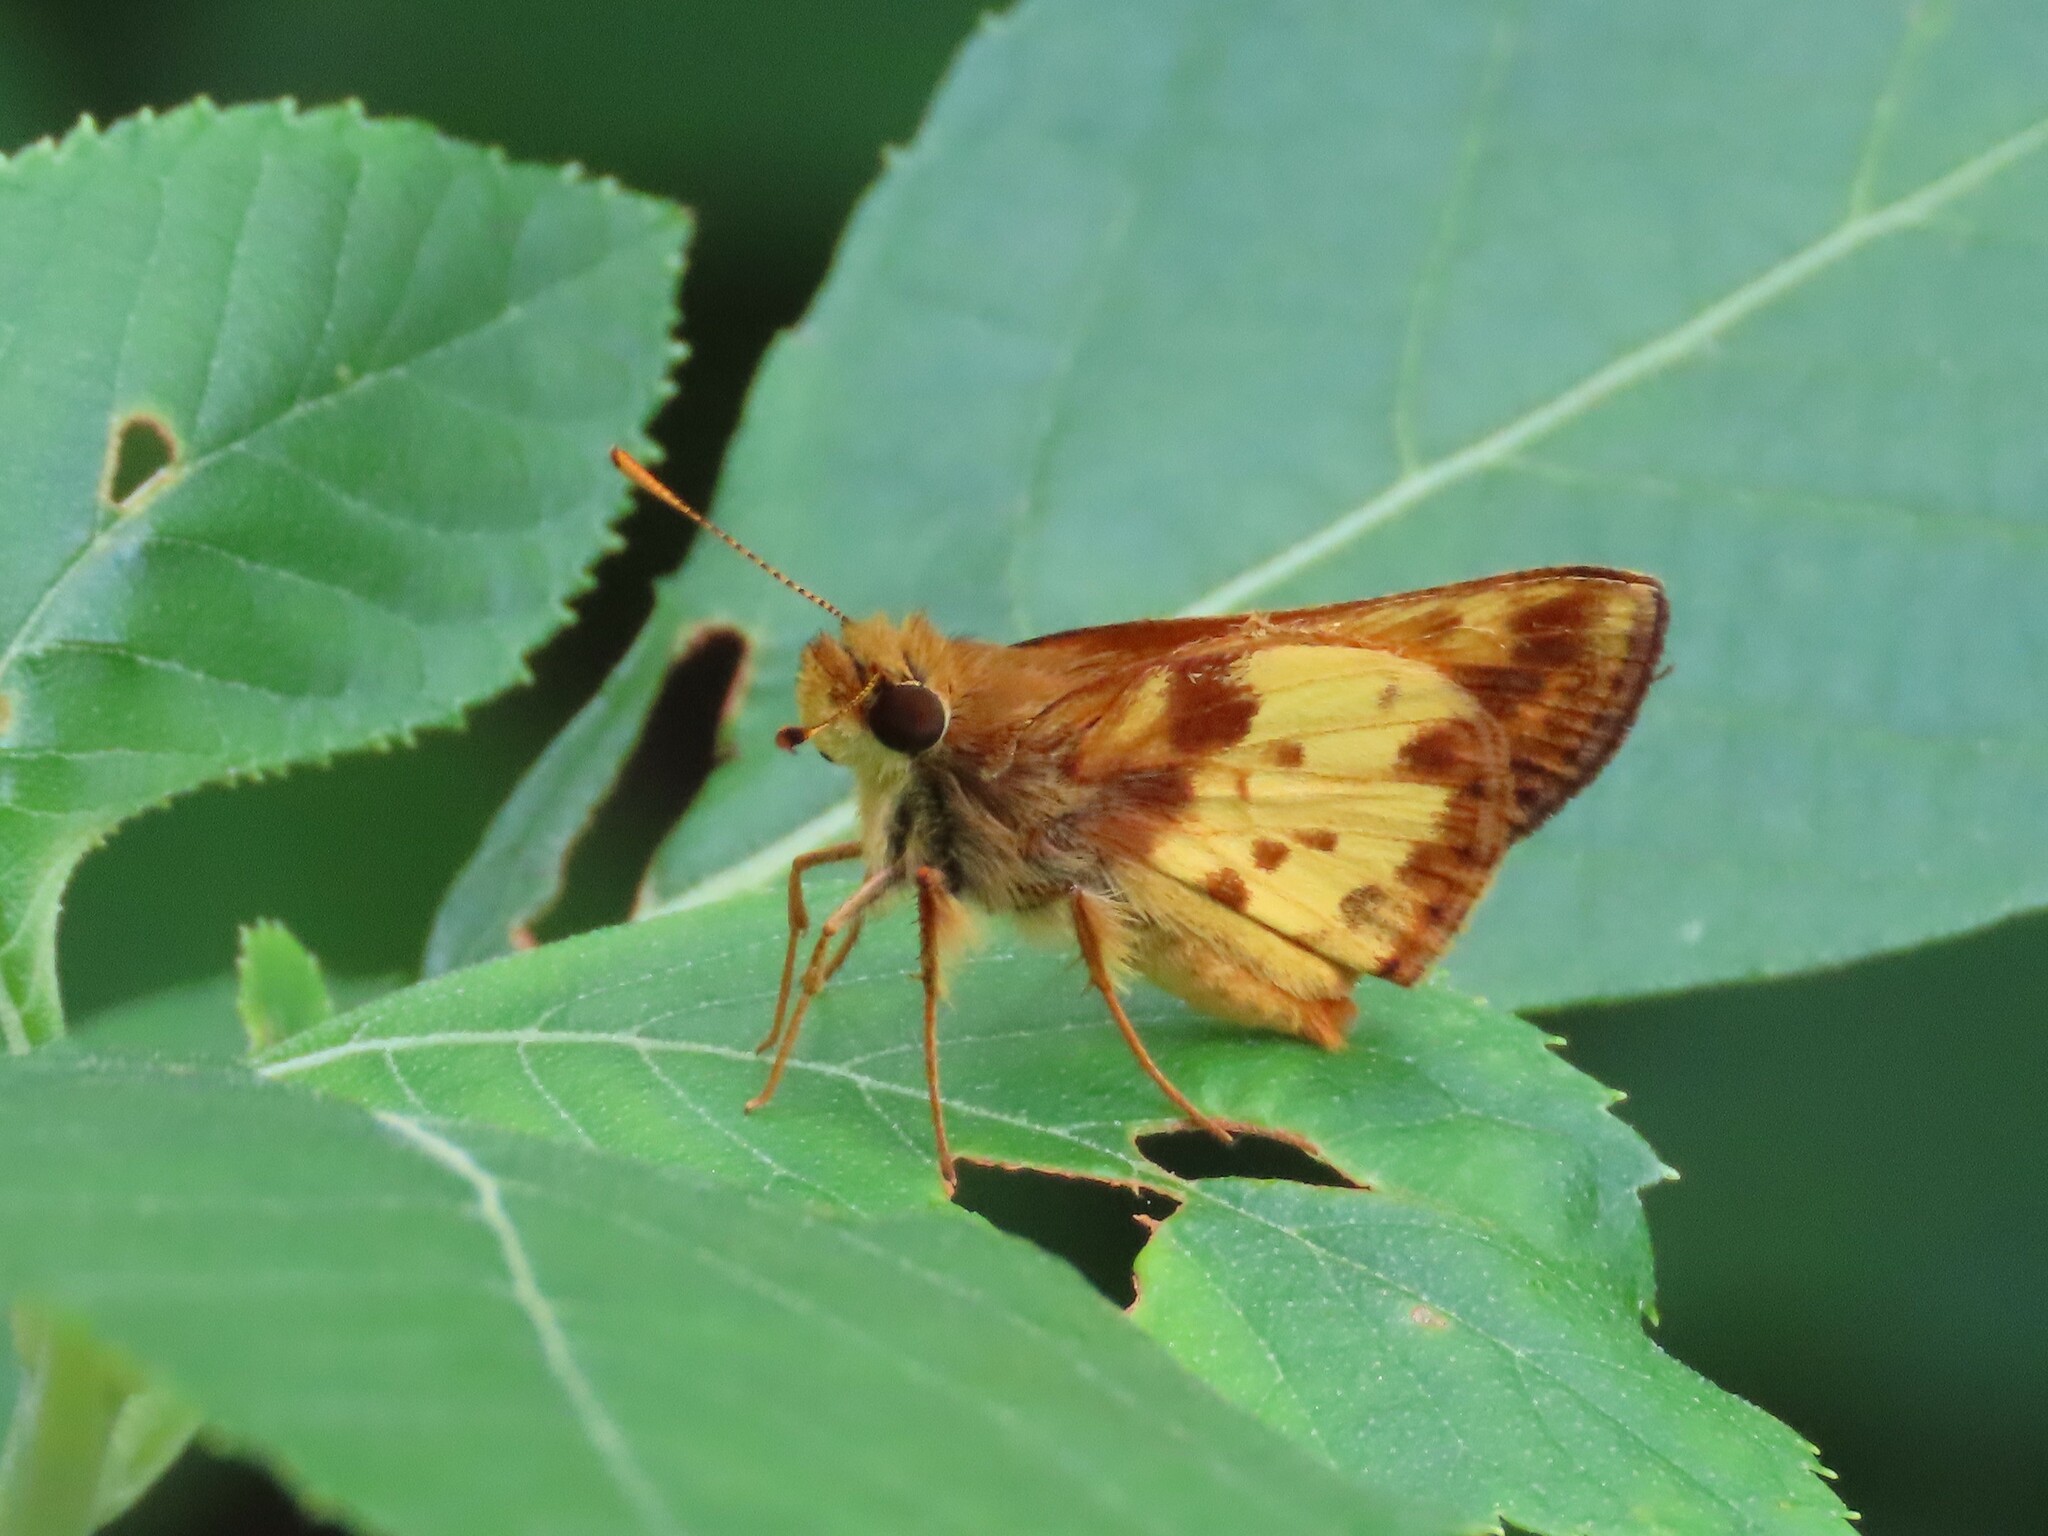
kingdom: Animalia
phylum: Arthropoda
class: Insecta
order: Lepidoptera
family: Hesperiidae
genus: Lon
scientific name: Lon zabulon
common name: Zabulon skipper
